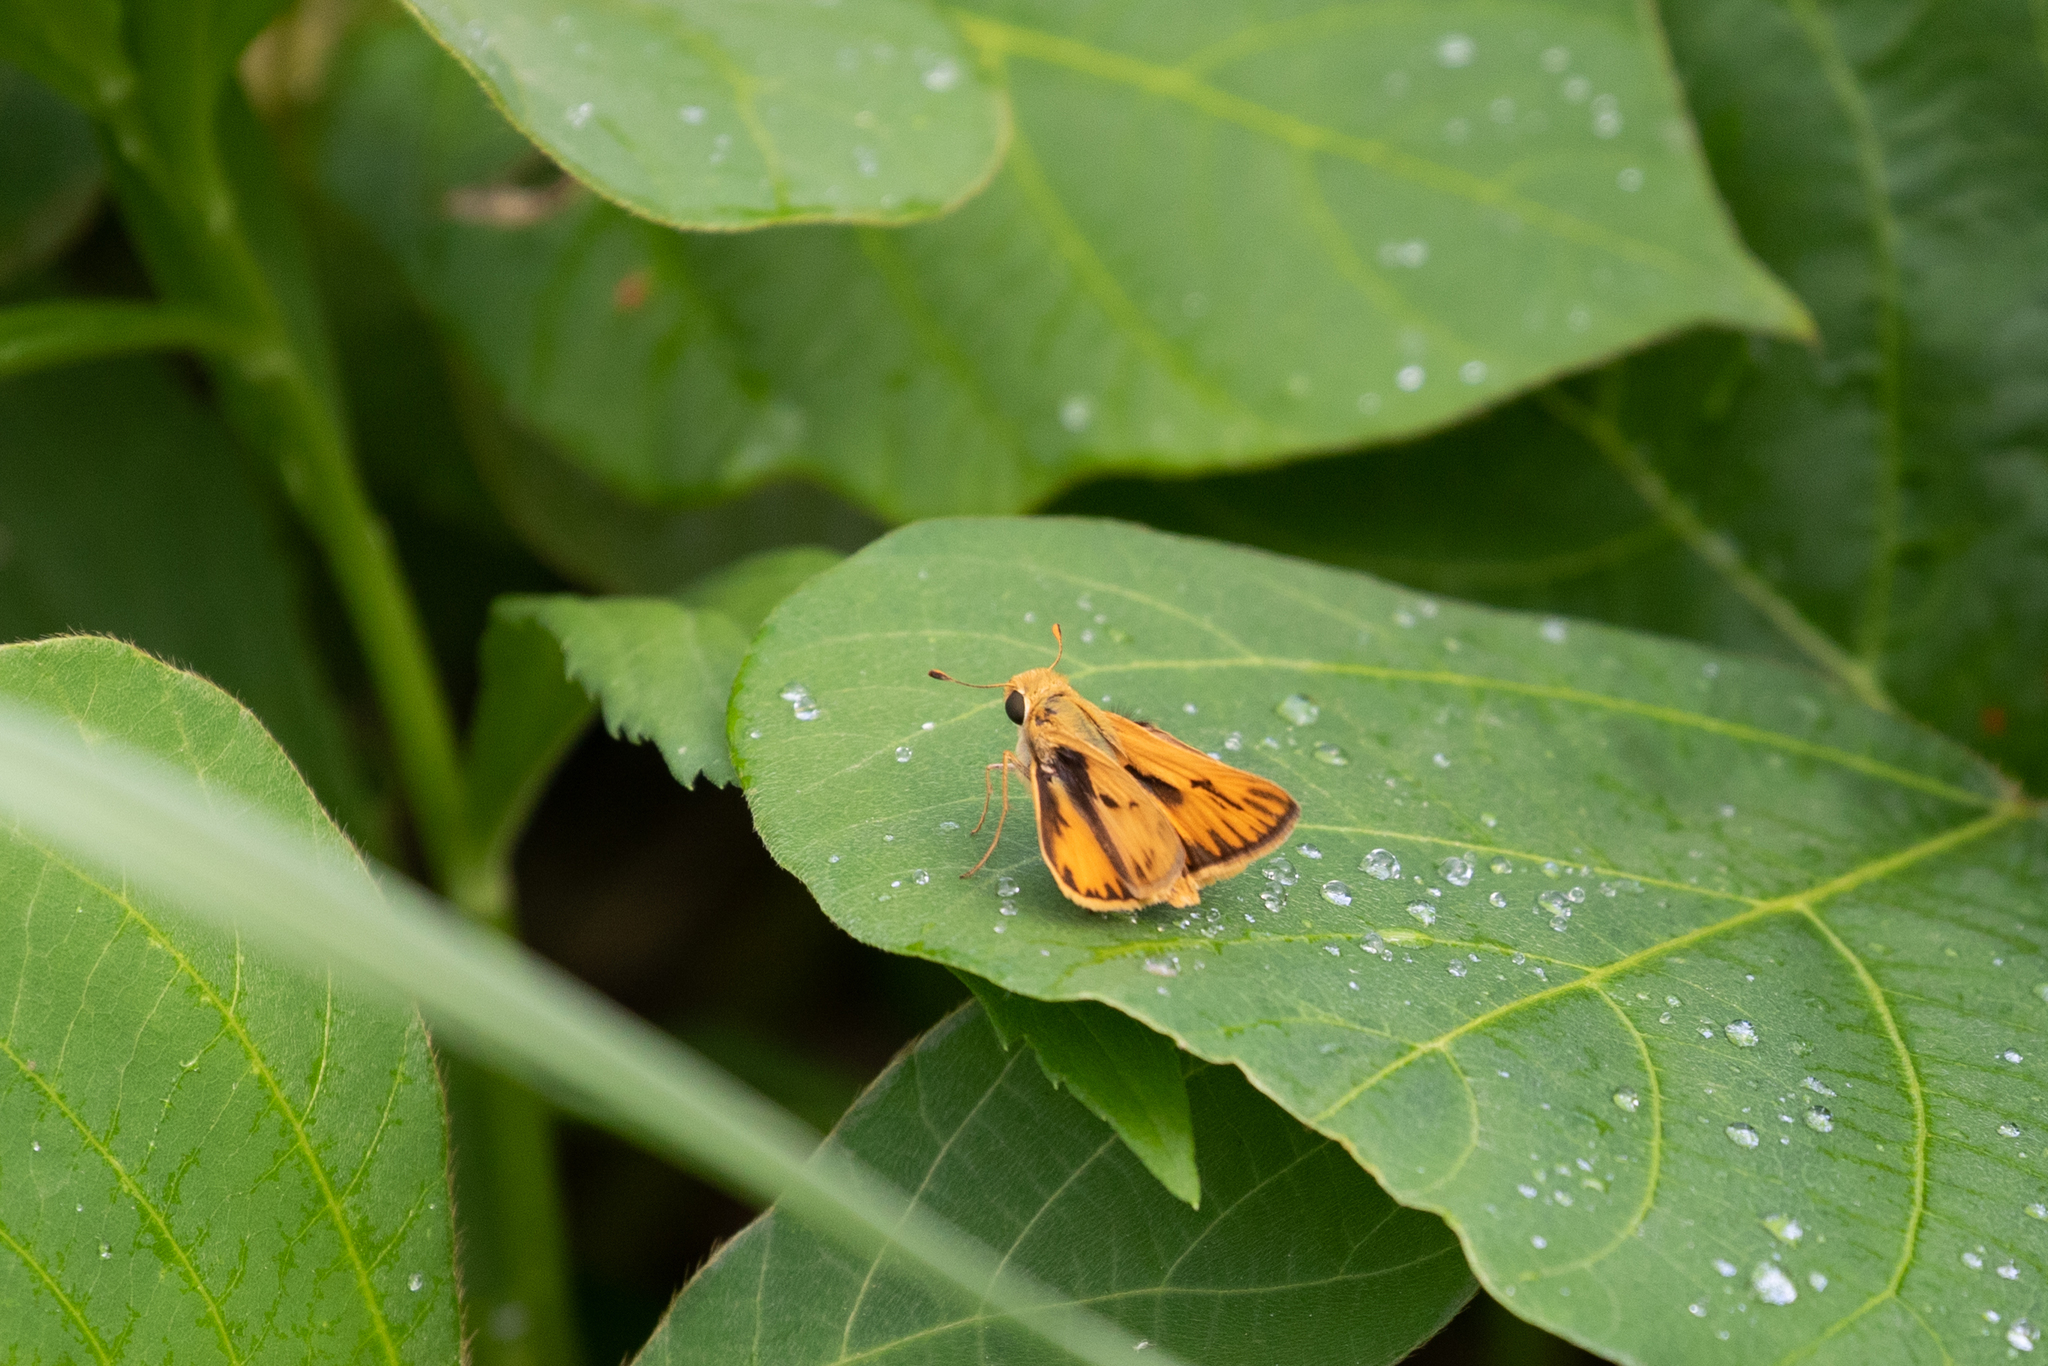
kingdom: Animalia
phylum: Arthropoda
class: Insecta
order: Lepidoptera
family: Hesperiidae
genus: Hylephila
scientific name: Hylephila phyleus
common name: Fiery skipper
